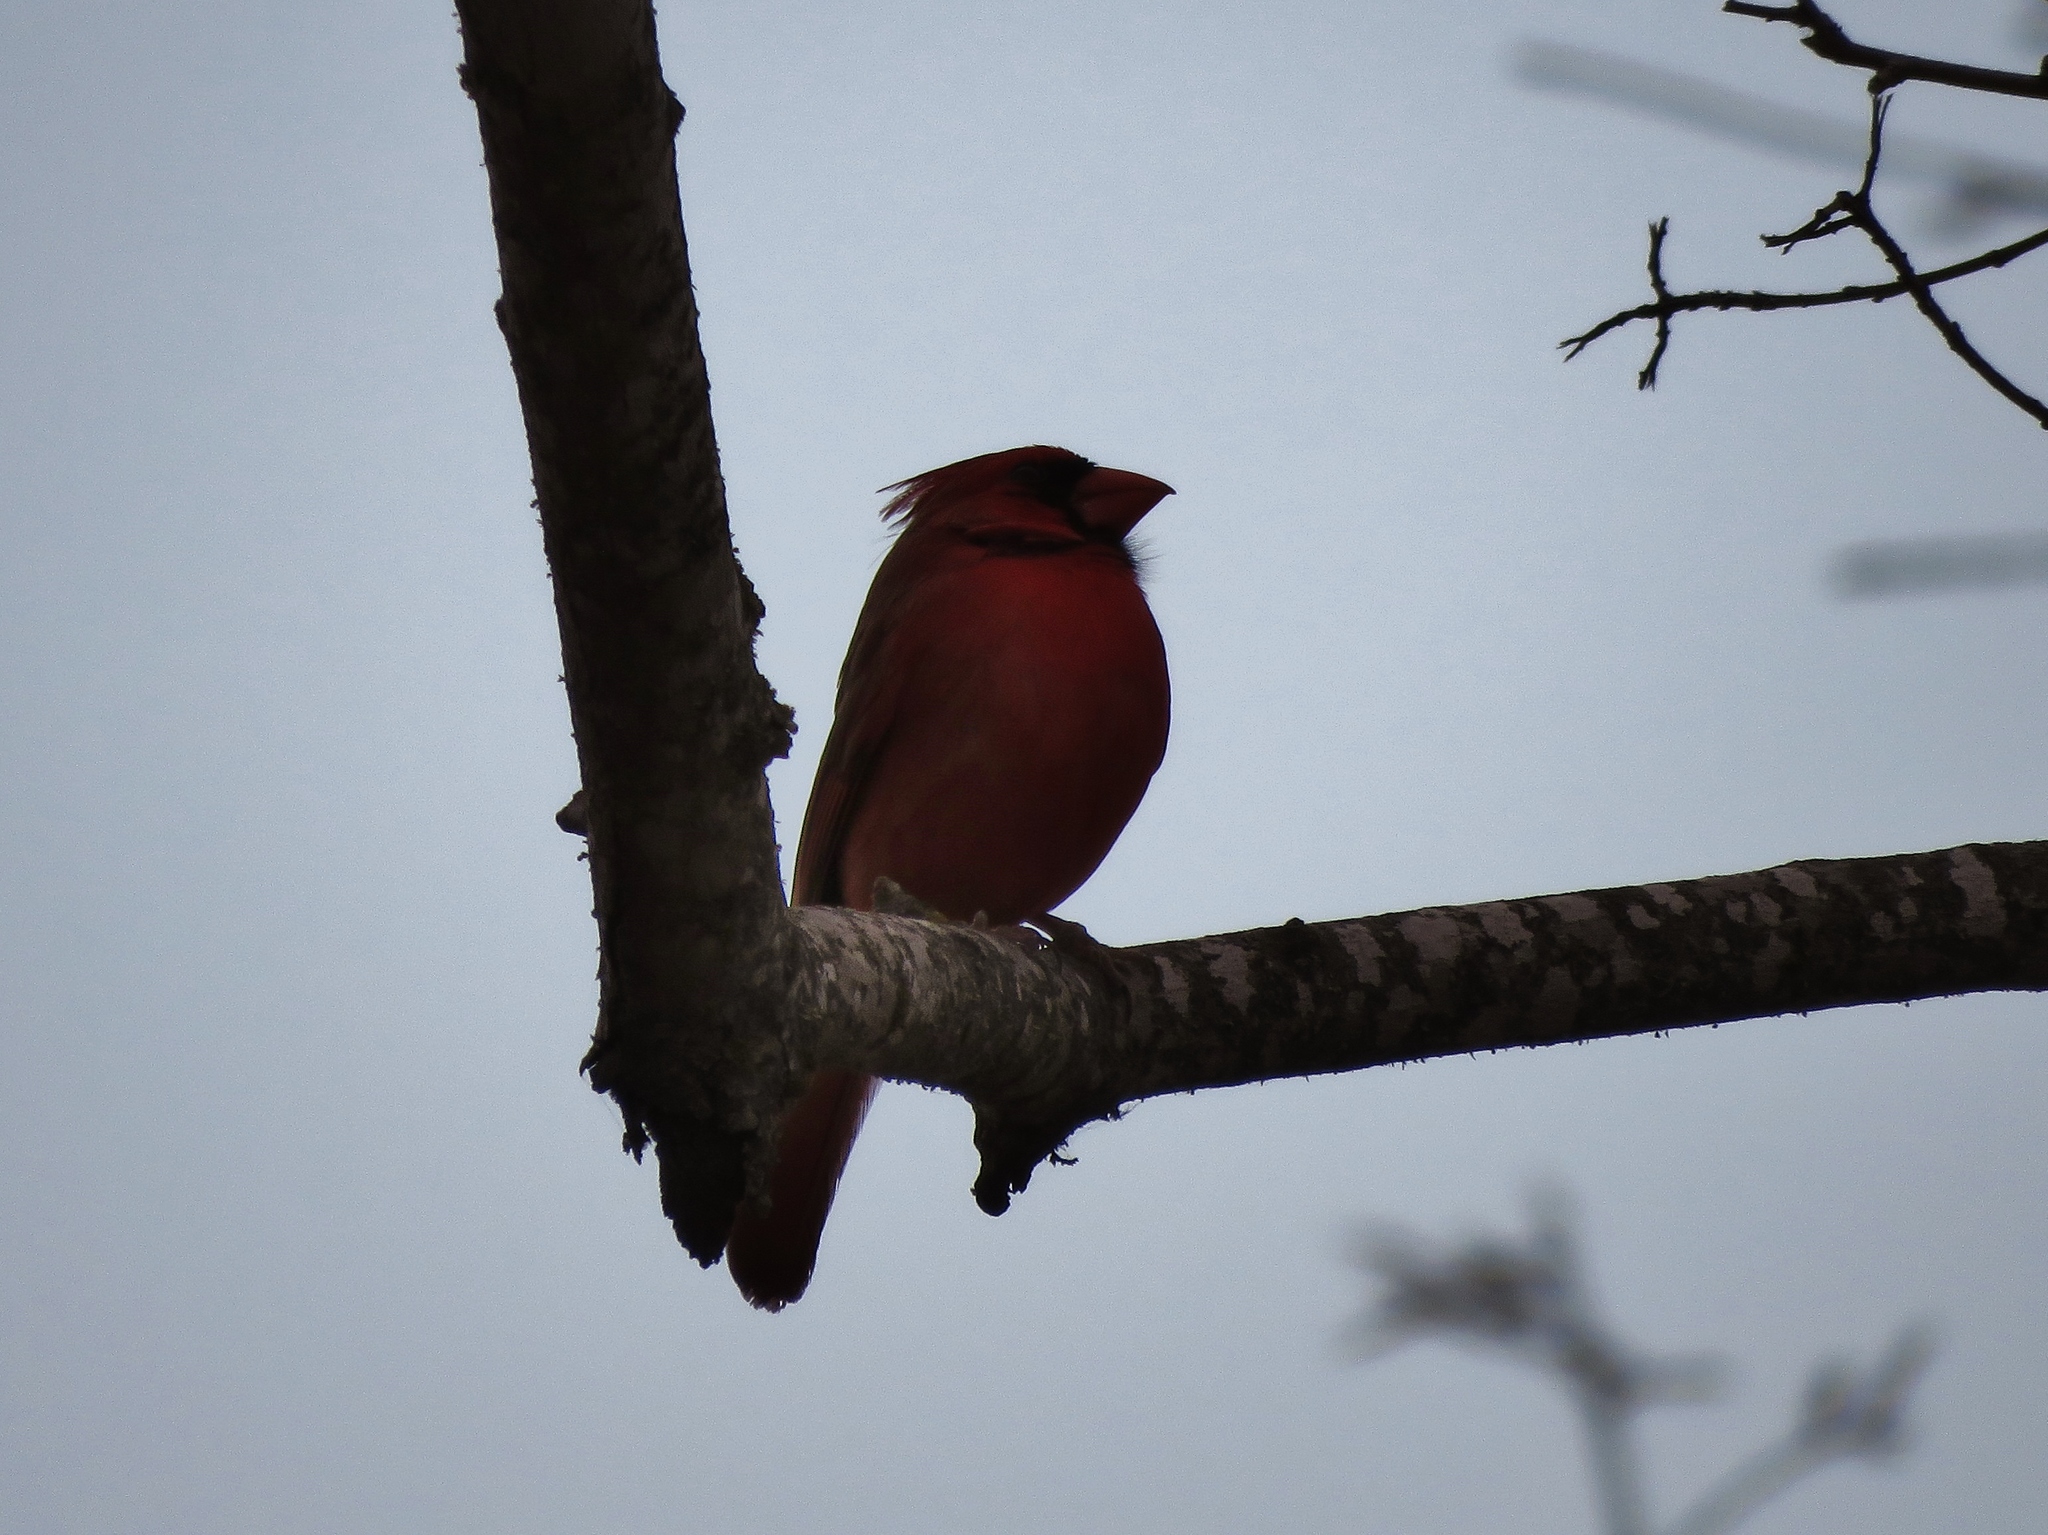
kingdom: Animalia
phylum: Chordata
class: Aves
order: Passeriformes
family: Cardinalidae
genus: Cardinalis
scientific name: Cardinalis cardinalis
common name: Northern cardinal
